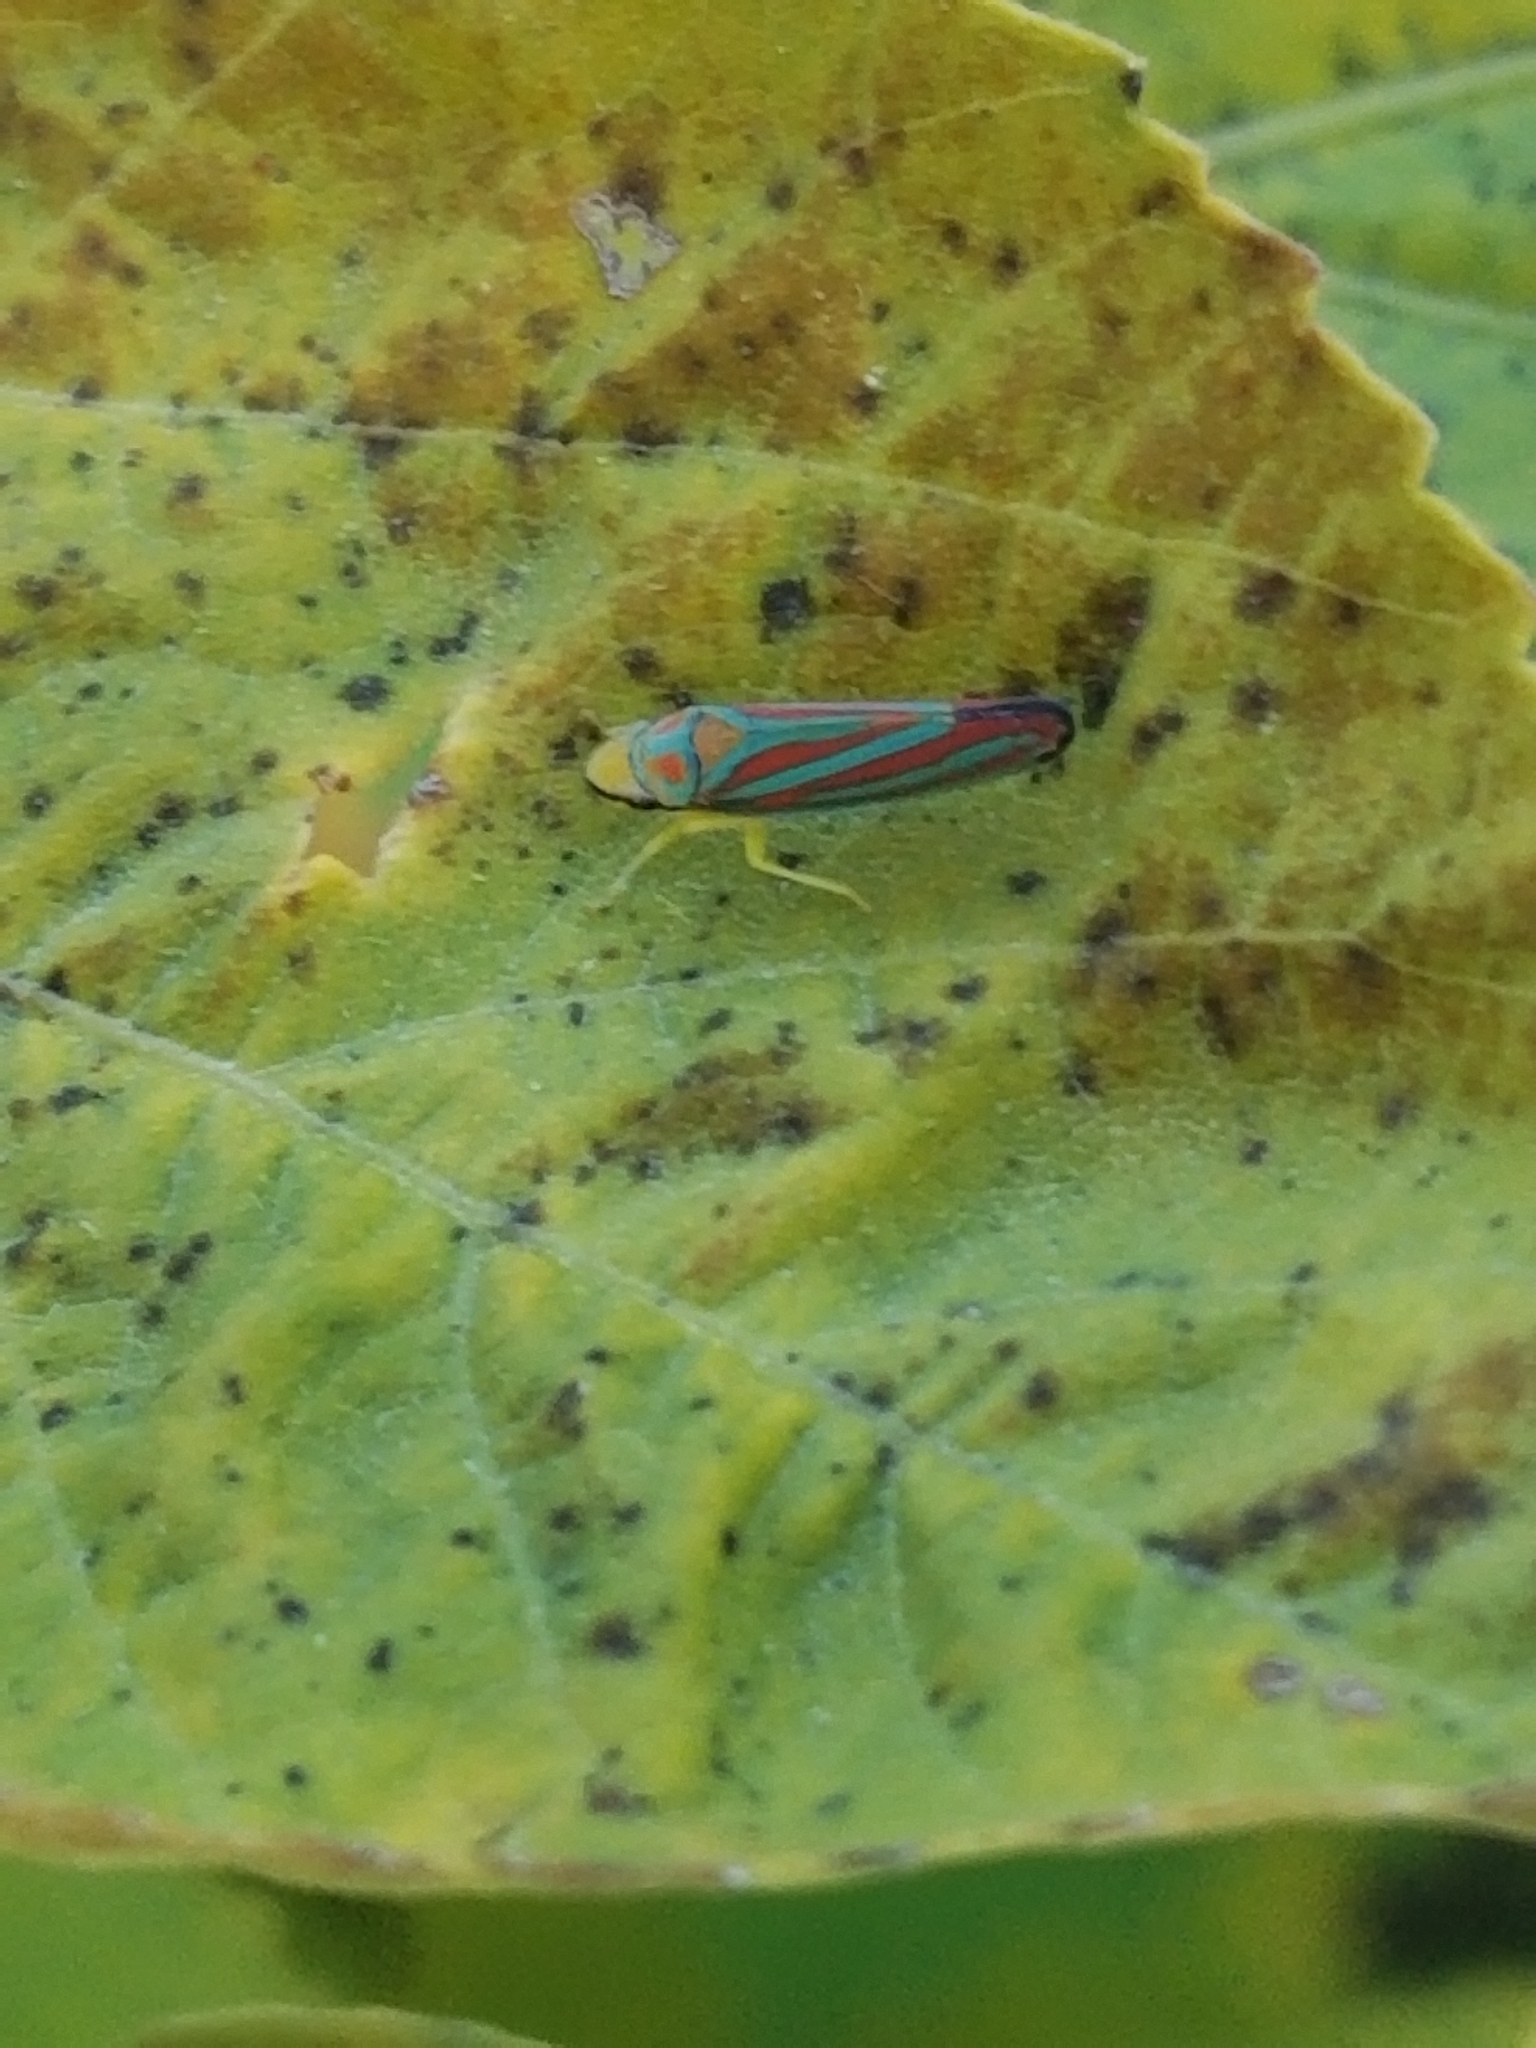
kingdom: Animalia
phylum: Arthropoda
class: Insecta
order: Hemiptera
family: Cicadellidae
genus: Graphocephala
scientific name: Graphocephala coccinea
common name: Candy-striped leafhopper
